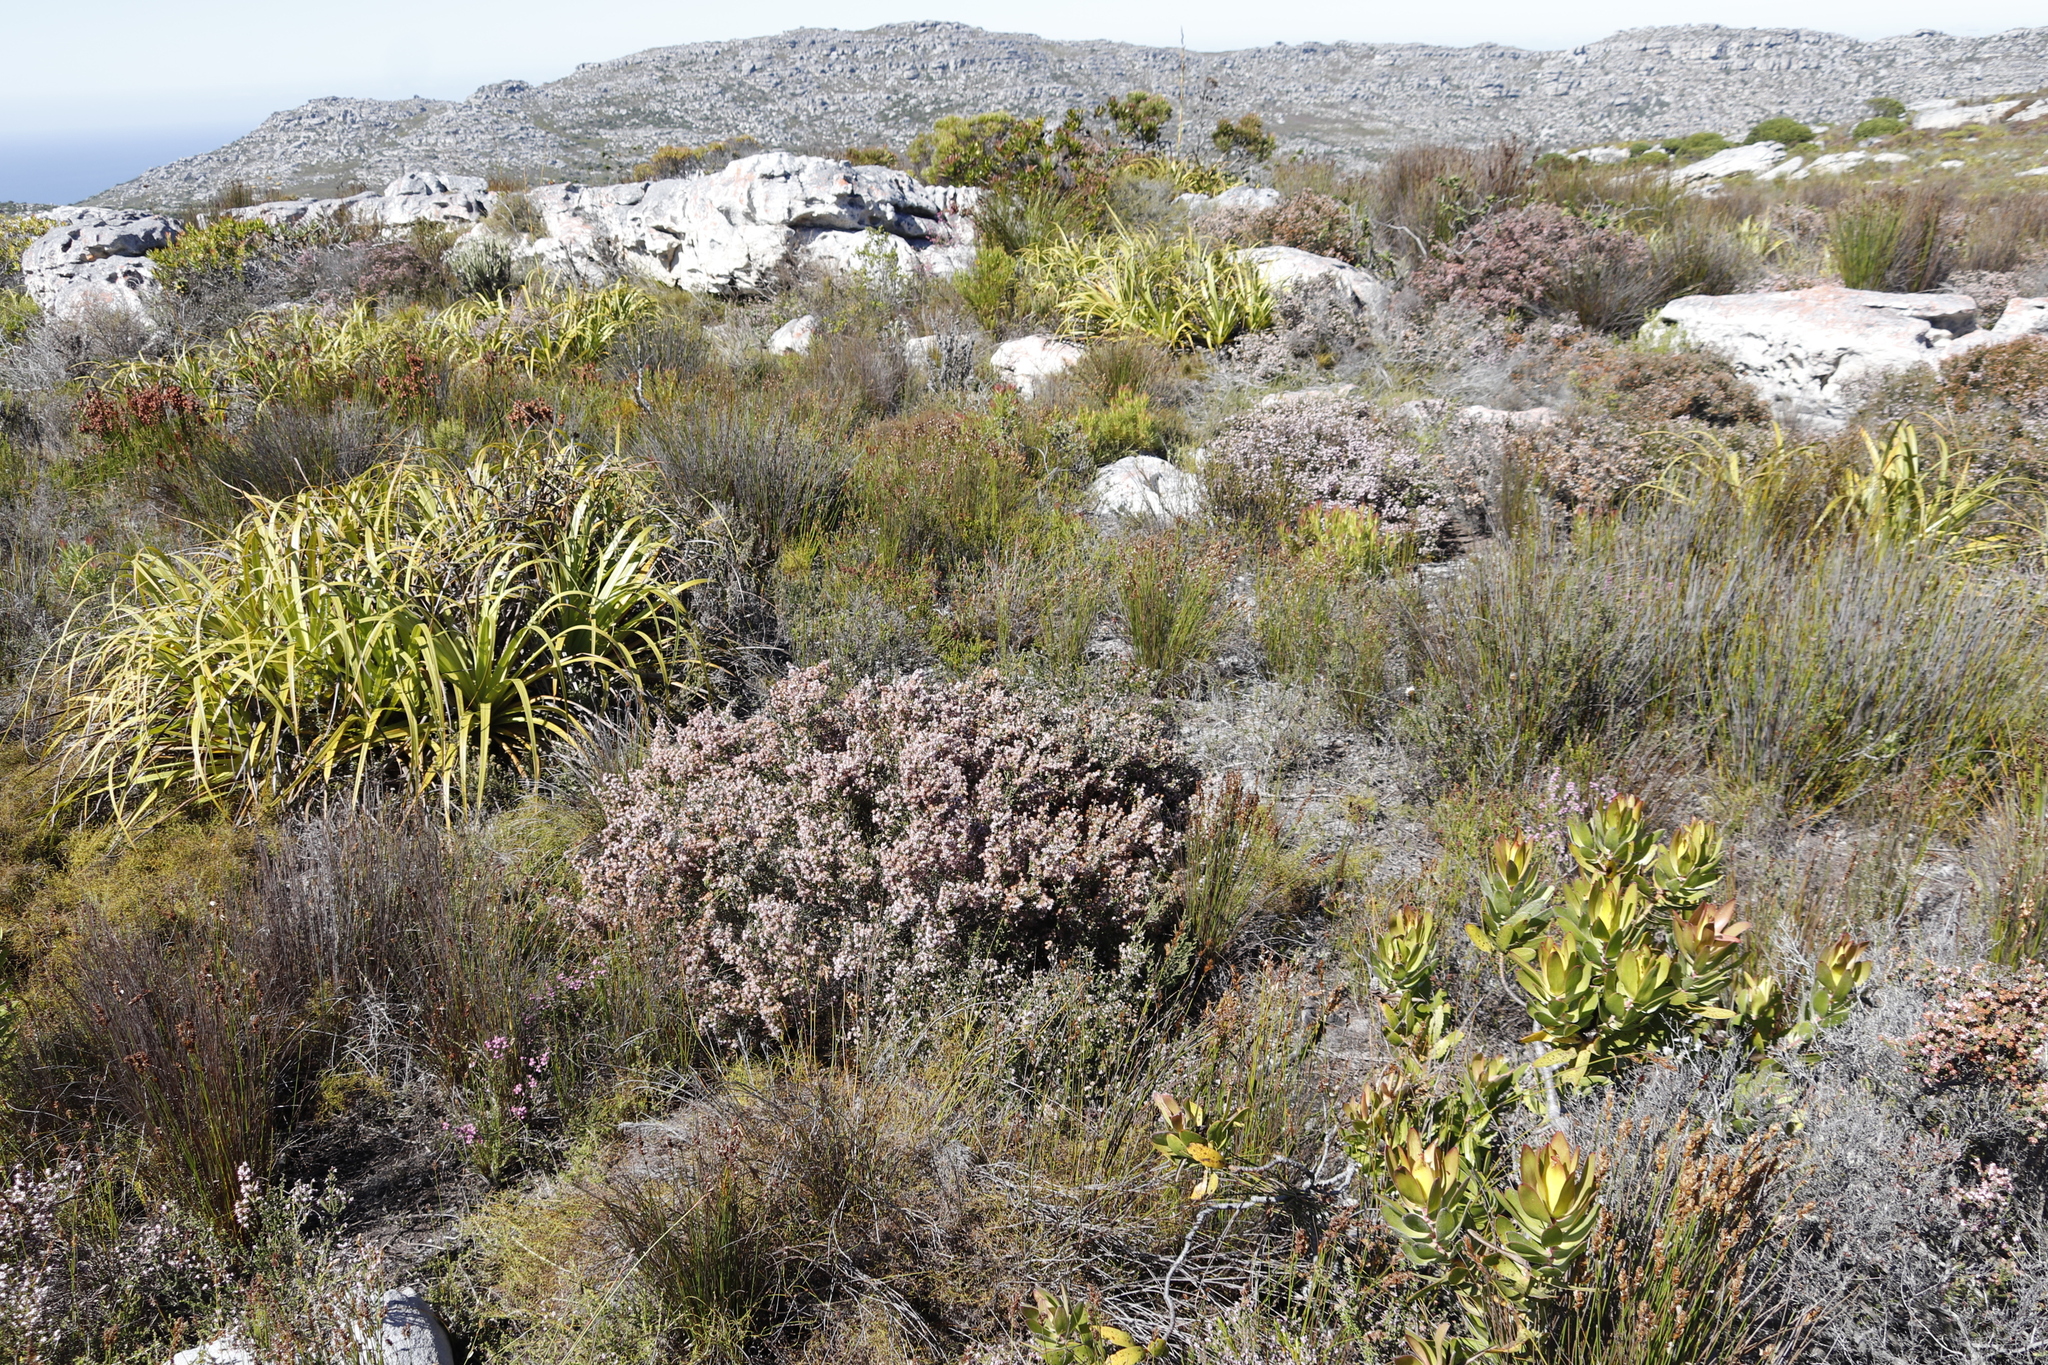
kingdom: Plantae
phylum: Tracheophyta
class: Magnoliopsida
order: Ericales
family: Ericaceae
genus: Erica
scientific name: Erica ericoides
